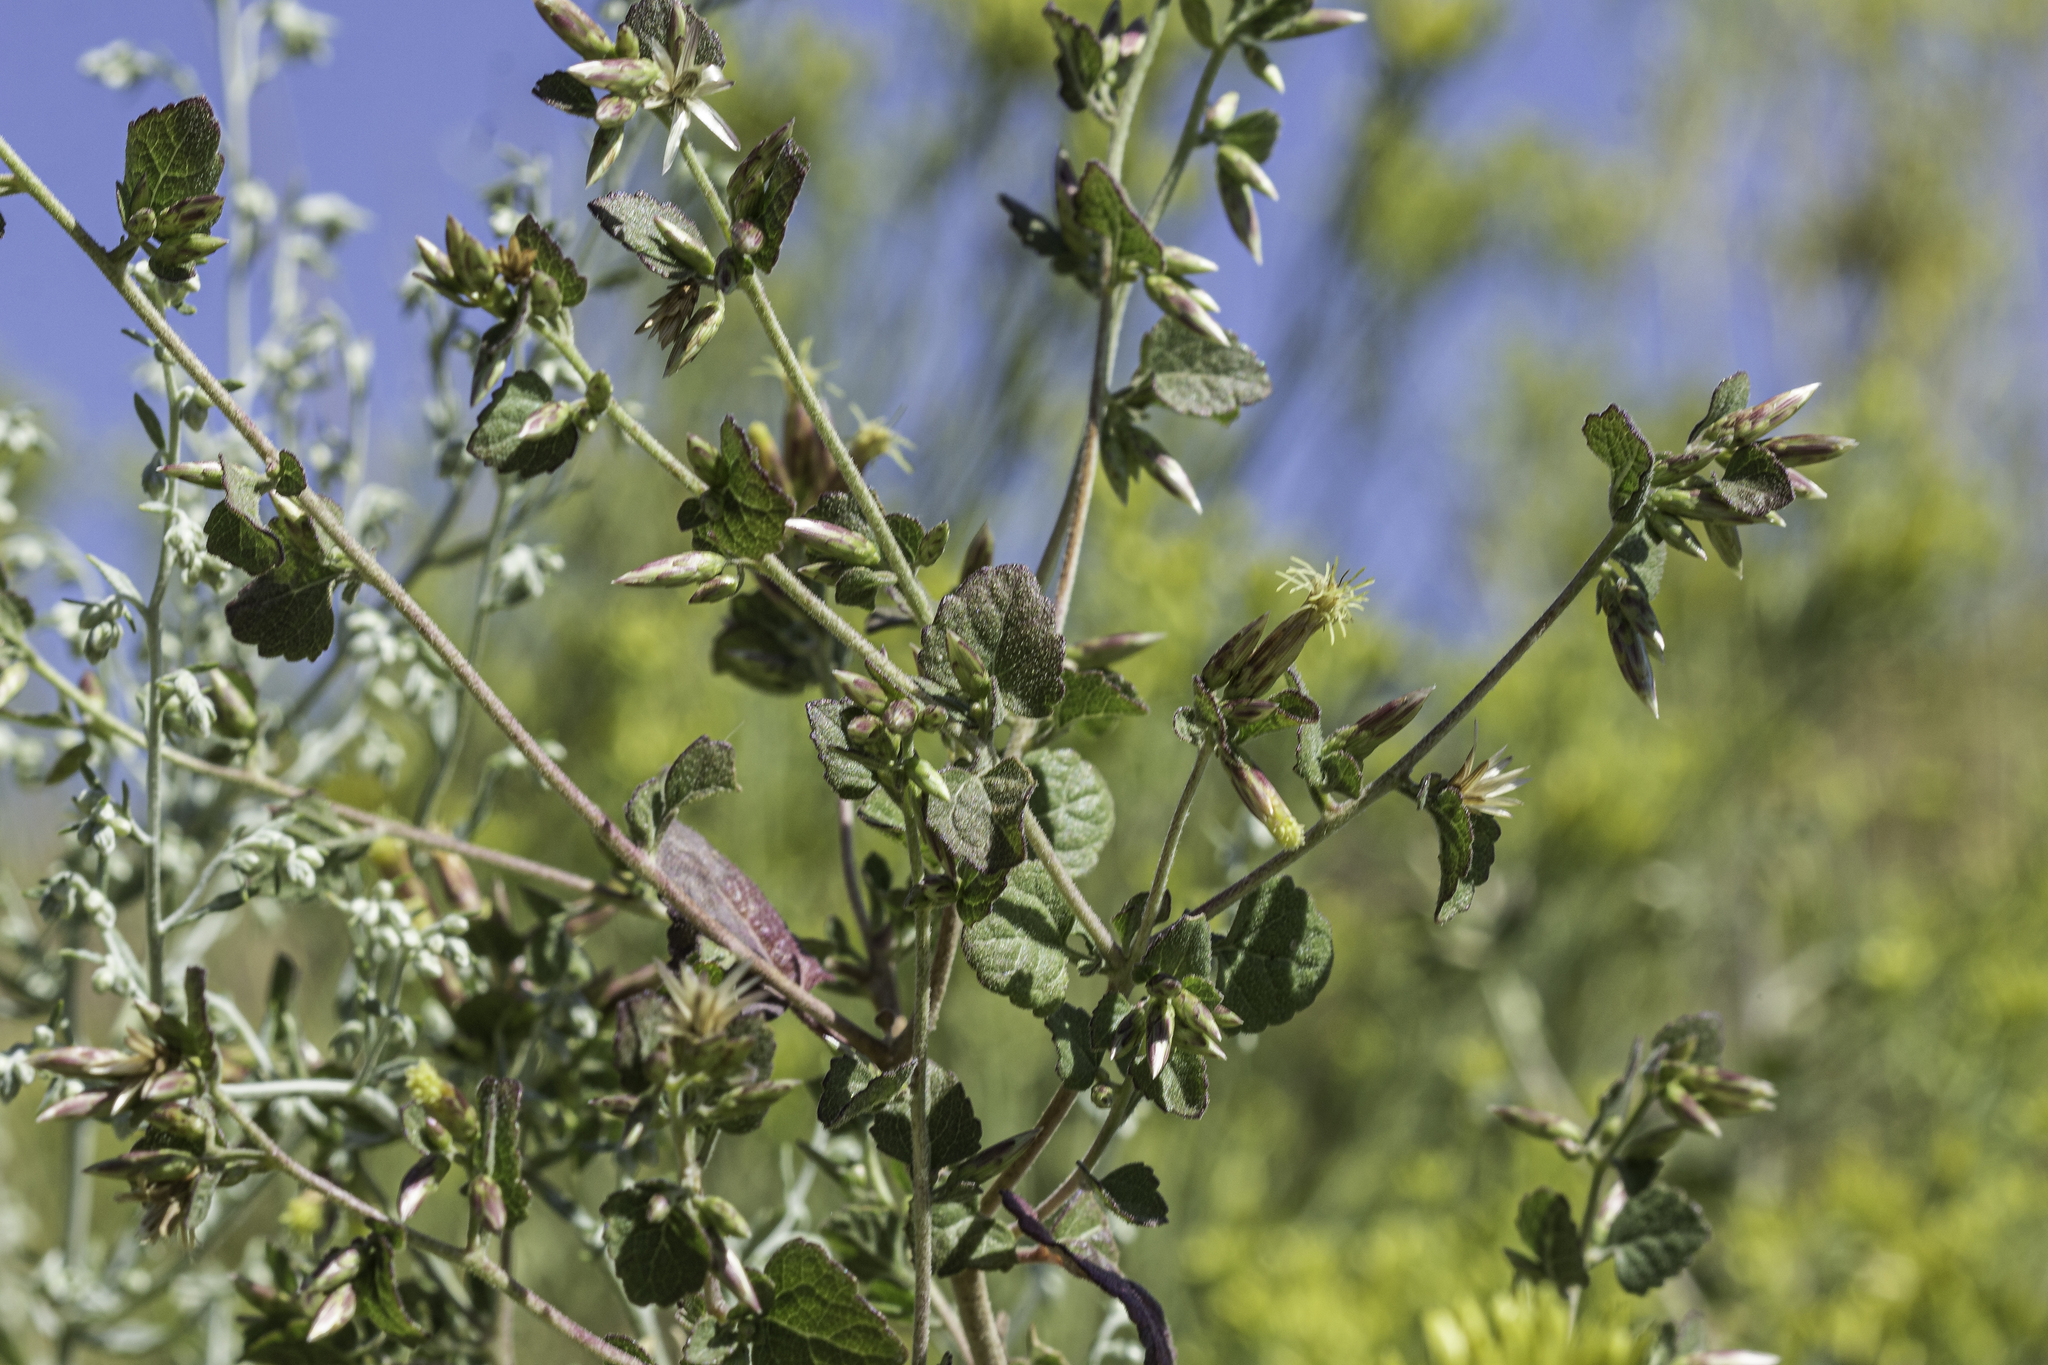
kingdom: Plantae
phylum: Tracheophyta
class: Magnoliopsida
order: Asterales
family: Asteraceae
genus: Brickellia
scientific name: Brickellia californica
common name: California brickellbush
